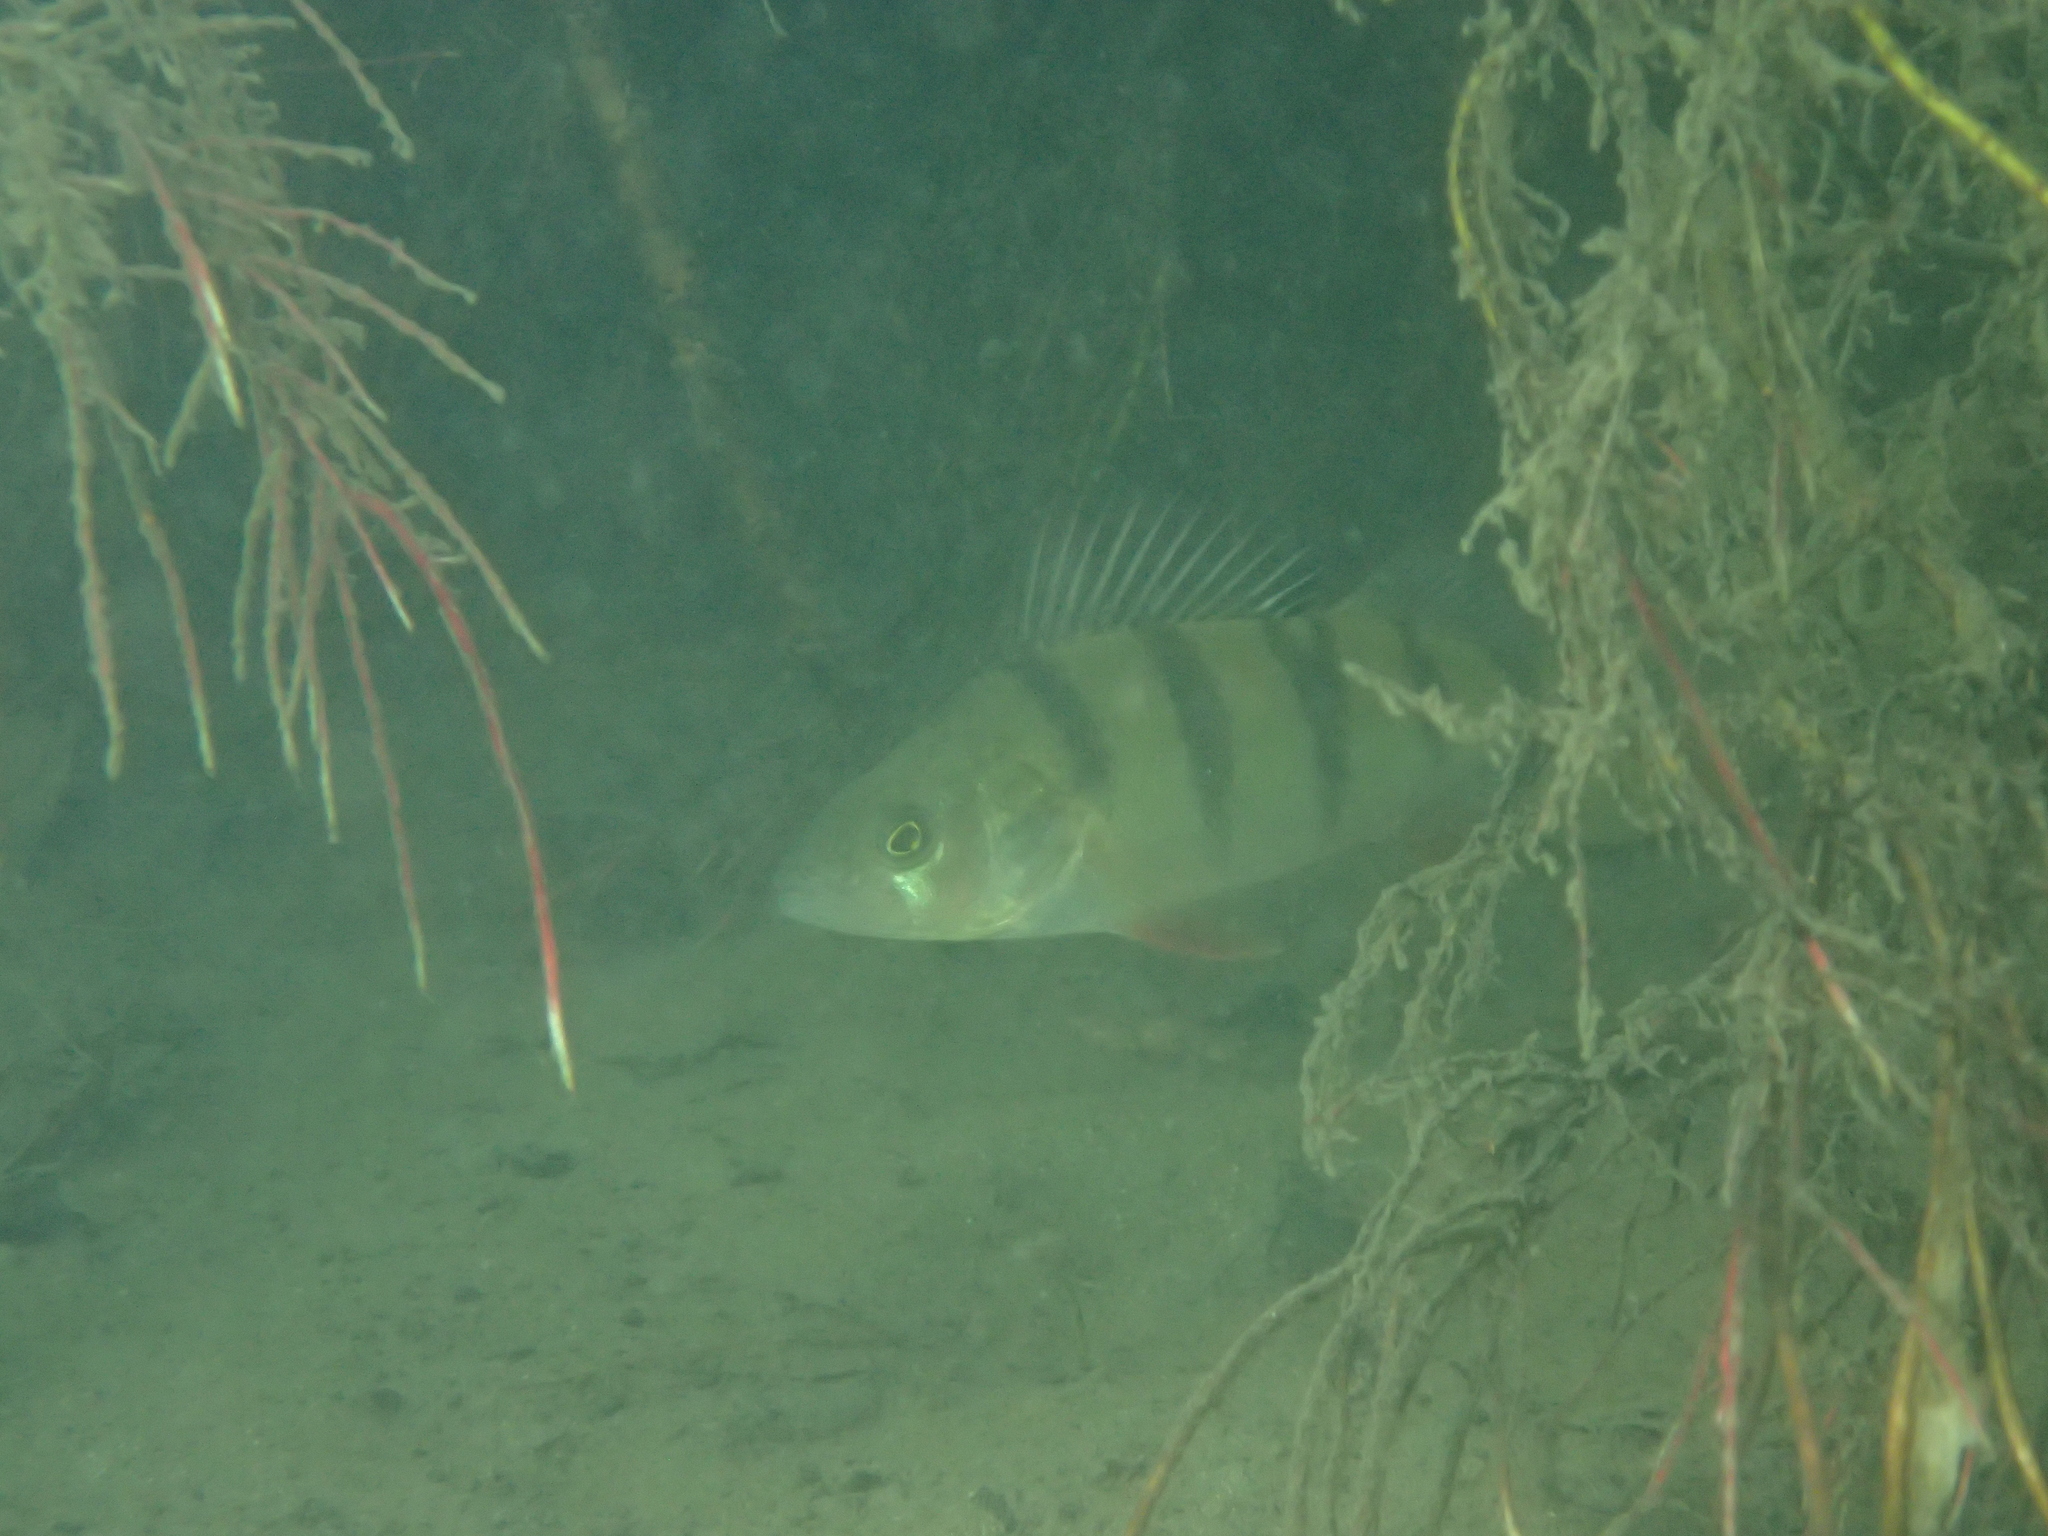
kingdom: Animalia
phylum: Chordata
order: Perciformes
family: Percidae
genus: Perca
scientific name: Perca fluviatilis
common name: Perch
